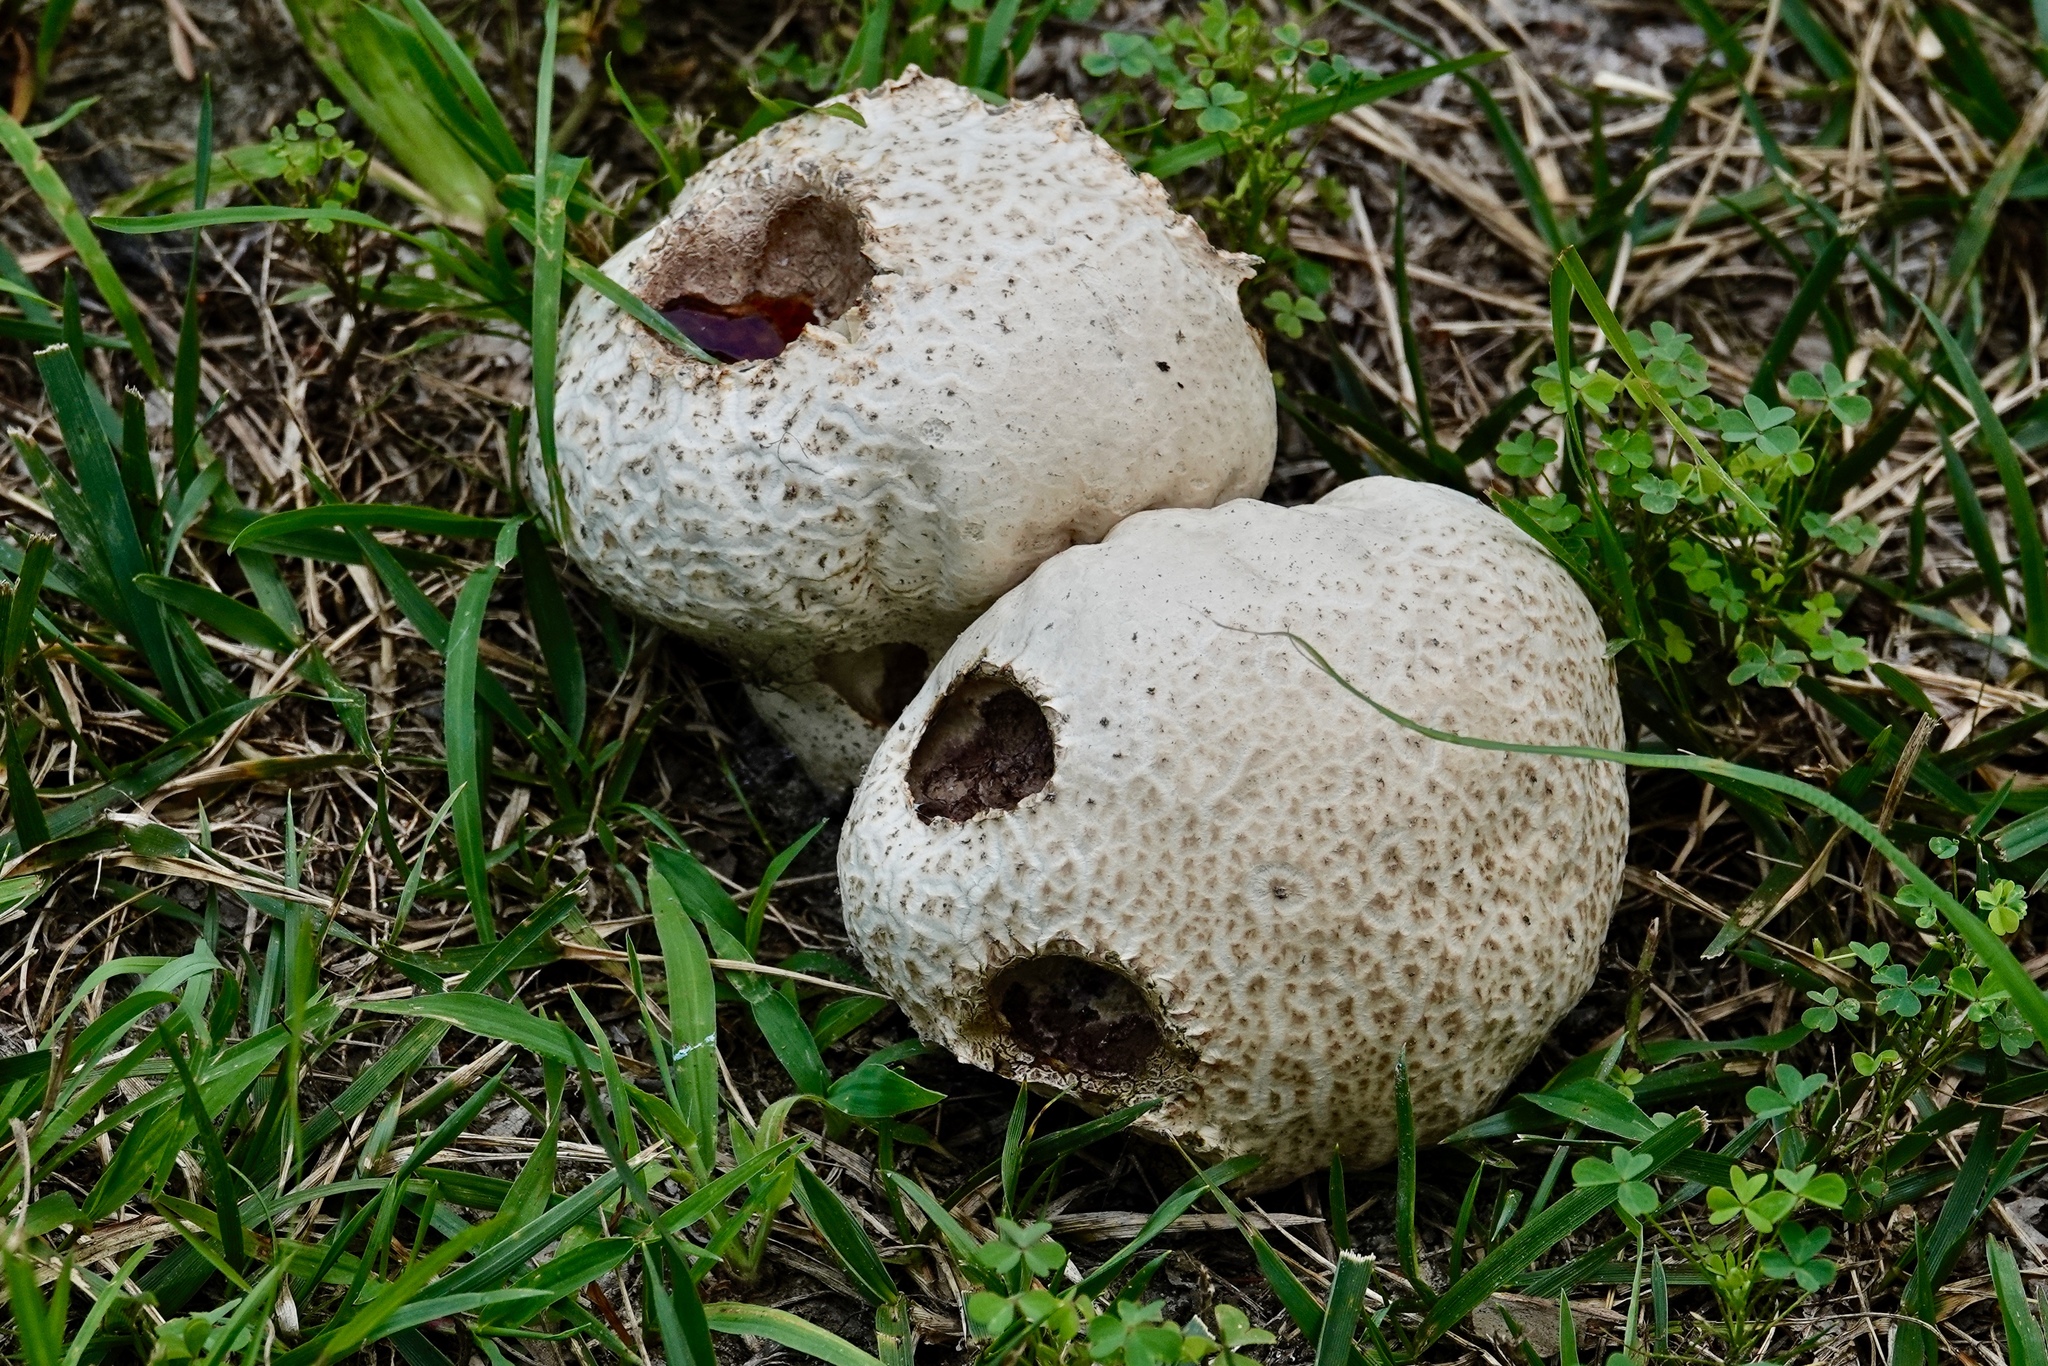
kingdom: Fungi
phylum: Basidiomycota
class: Agaricomycetes
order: Boletales
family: Sclerodermataceae
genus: Scleroderma
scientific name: Scleroderma citrinum
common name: Common earthball
